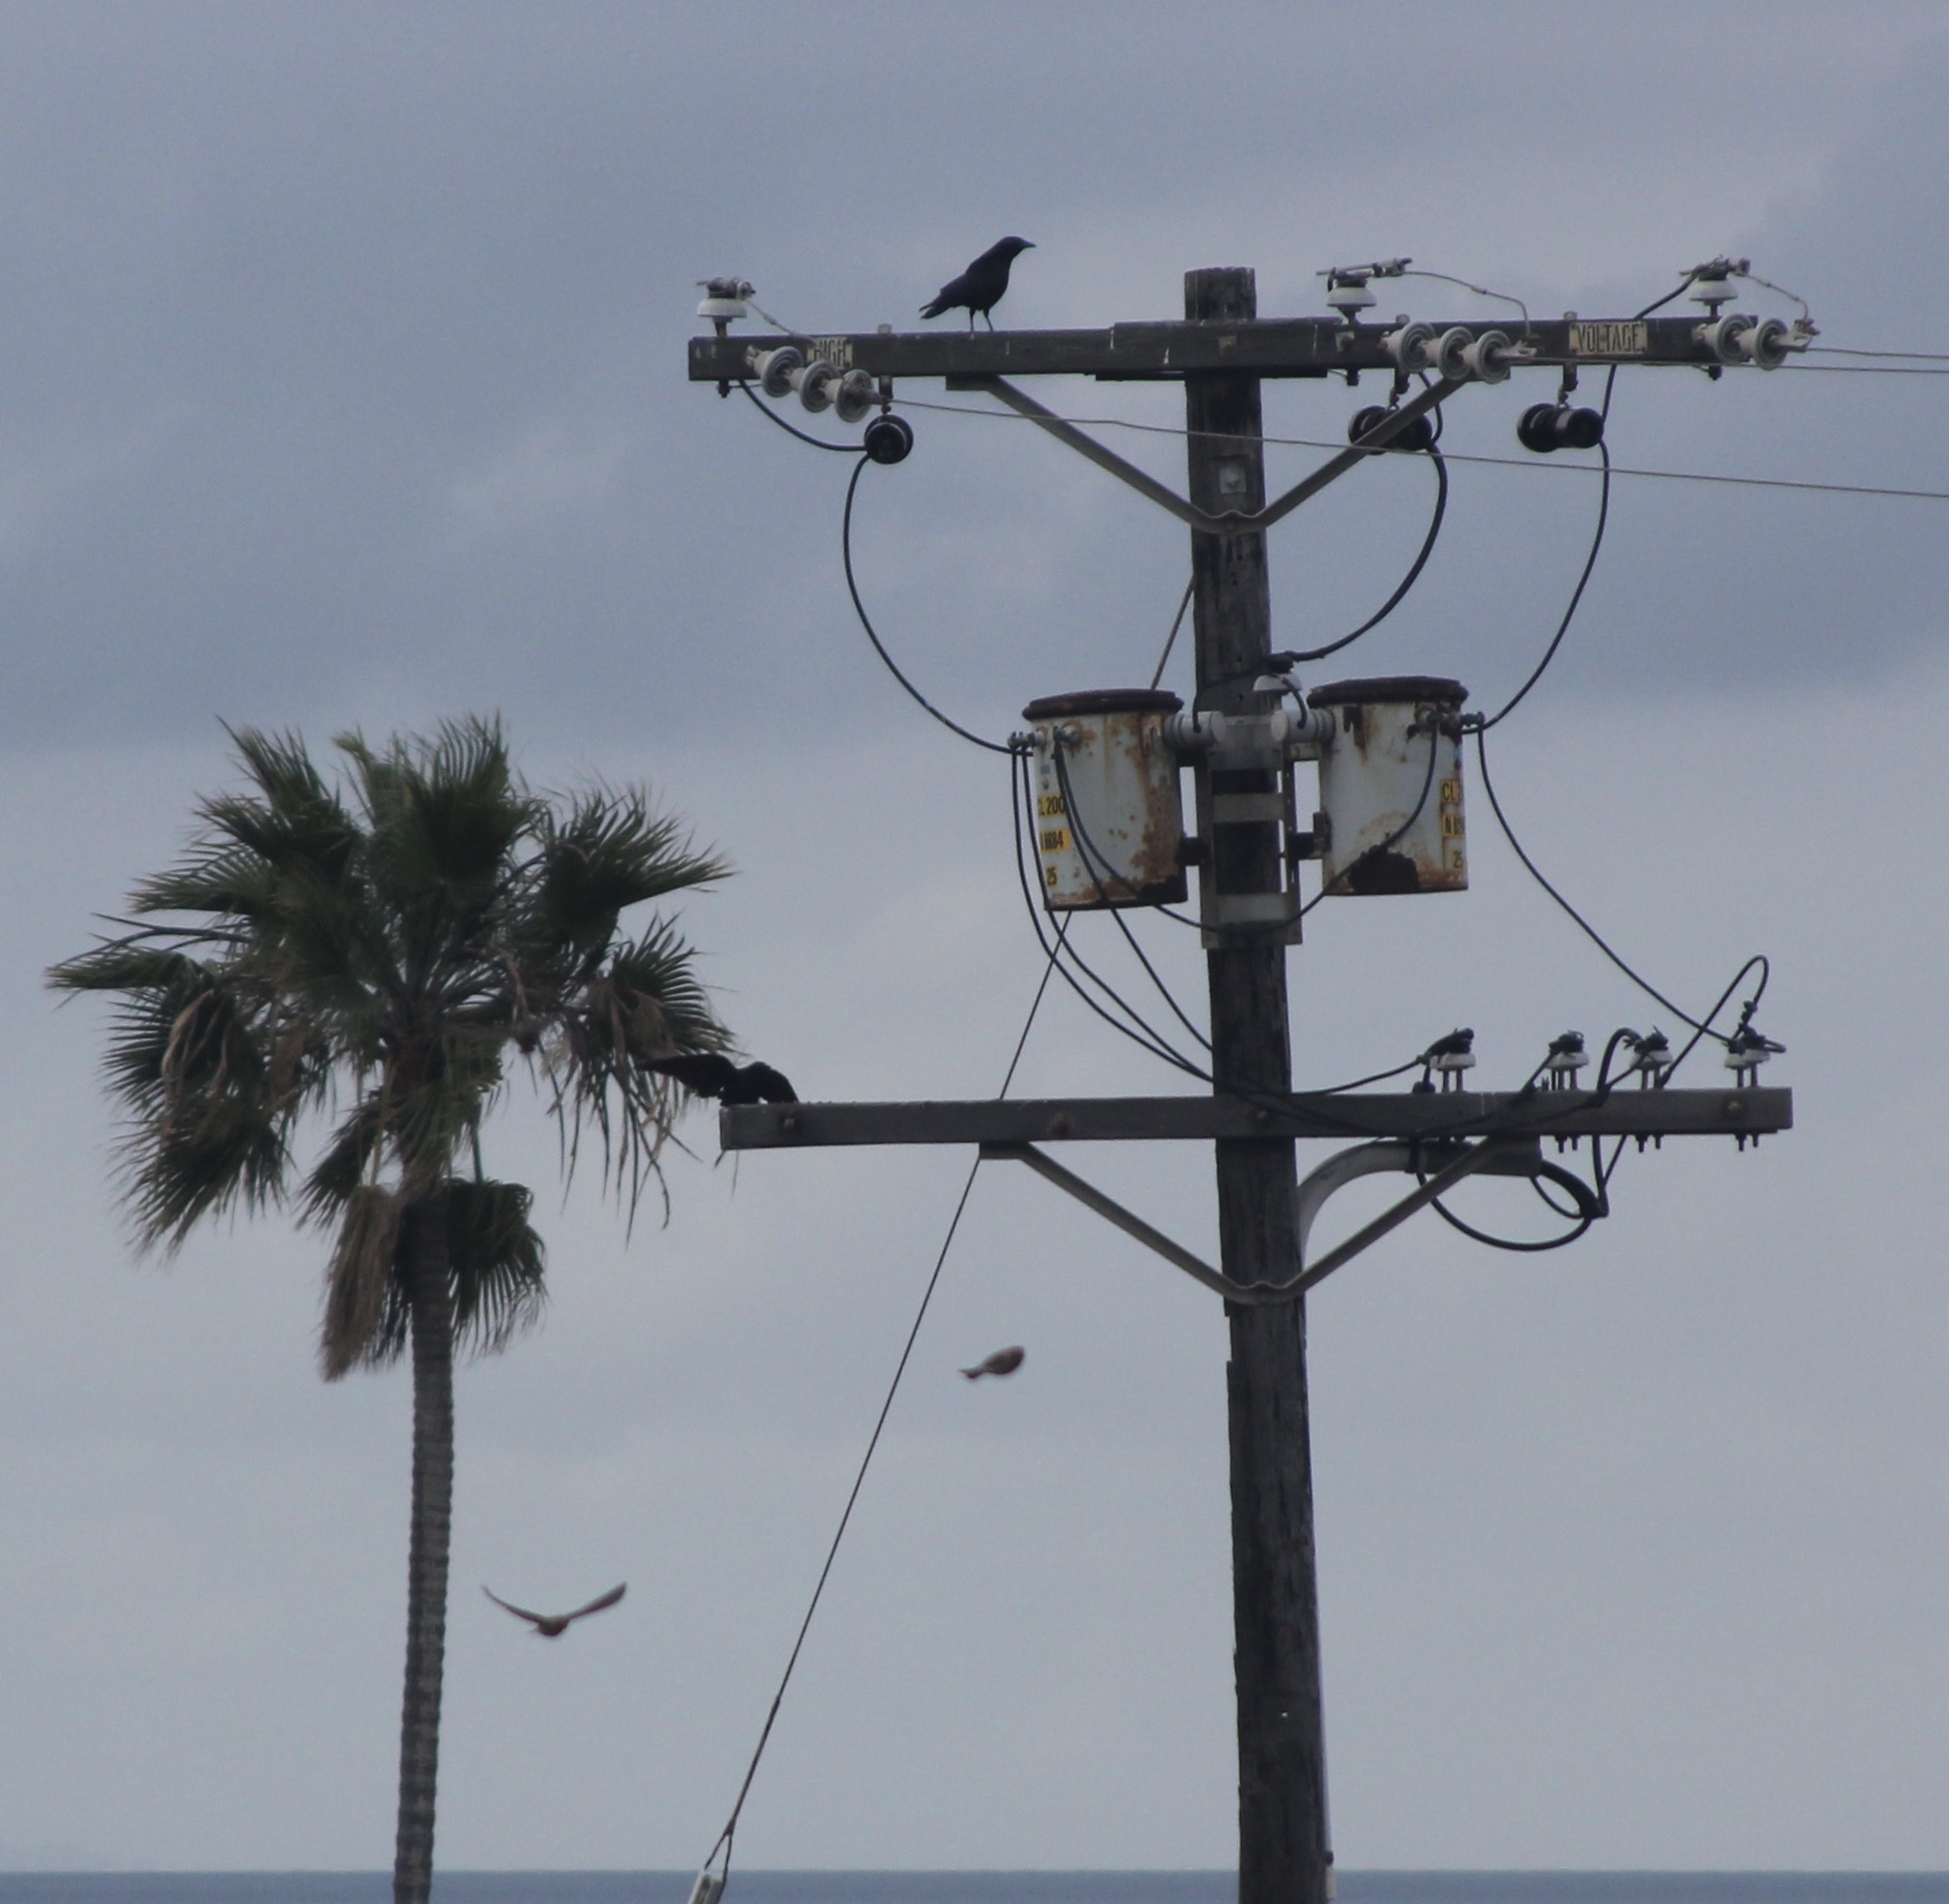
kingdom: Animalia
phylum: Chordata
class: Aves
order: Passeriformes
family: Corvidae
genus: Corvus
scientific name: Corvus brachyrhynchos
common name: American crow
